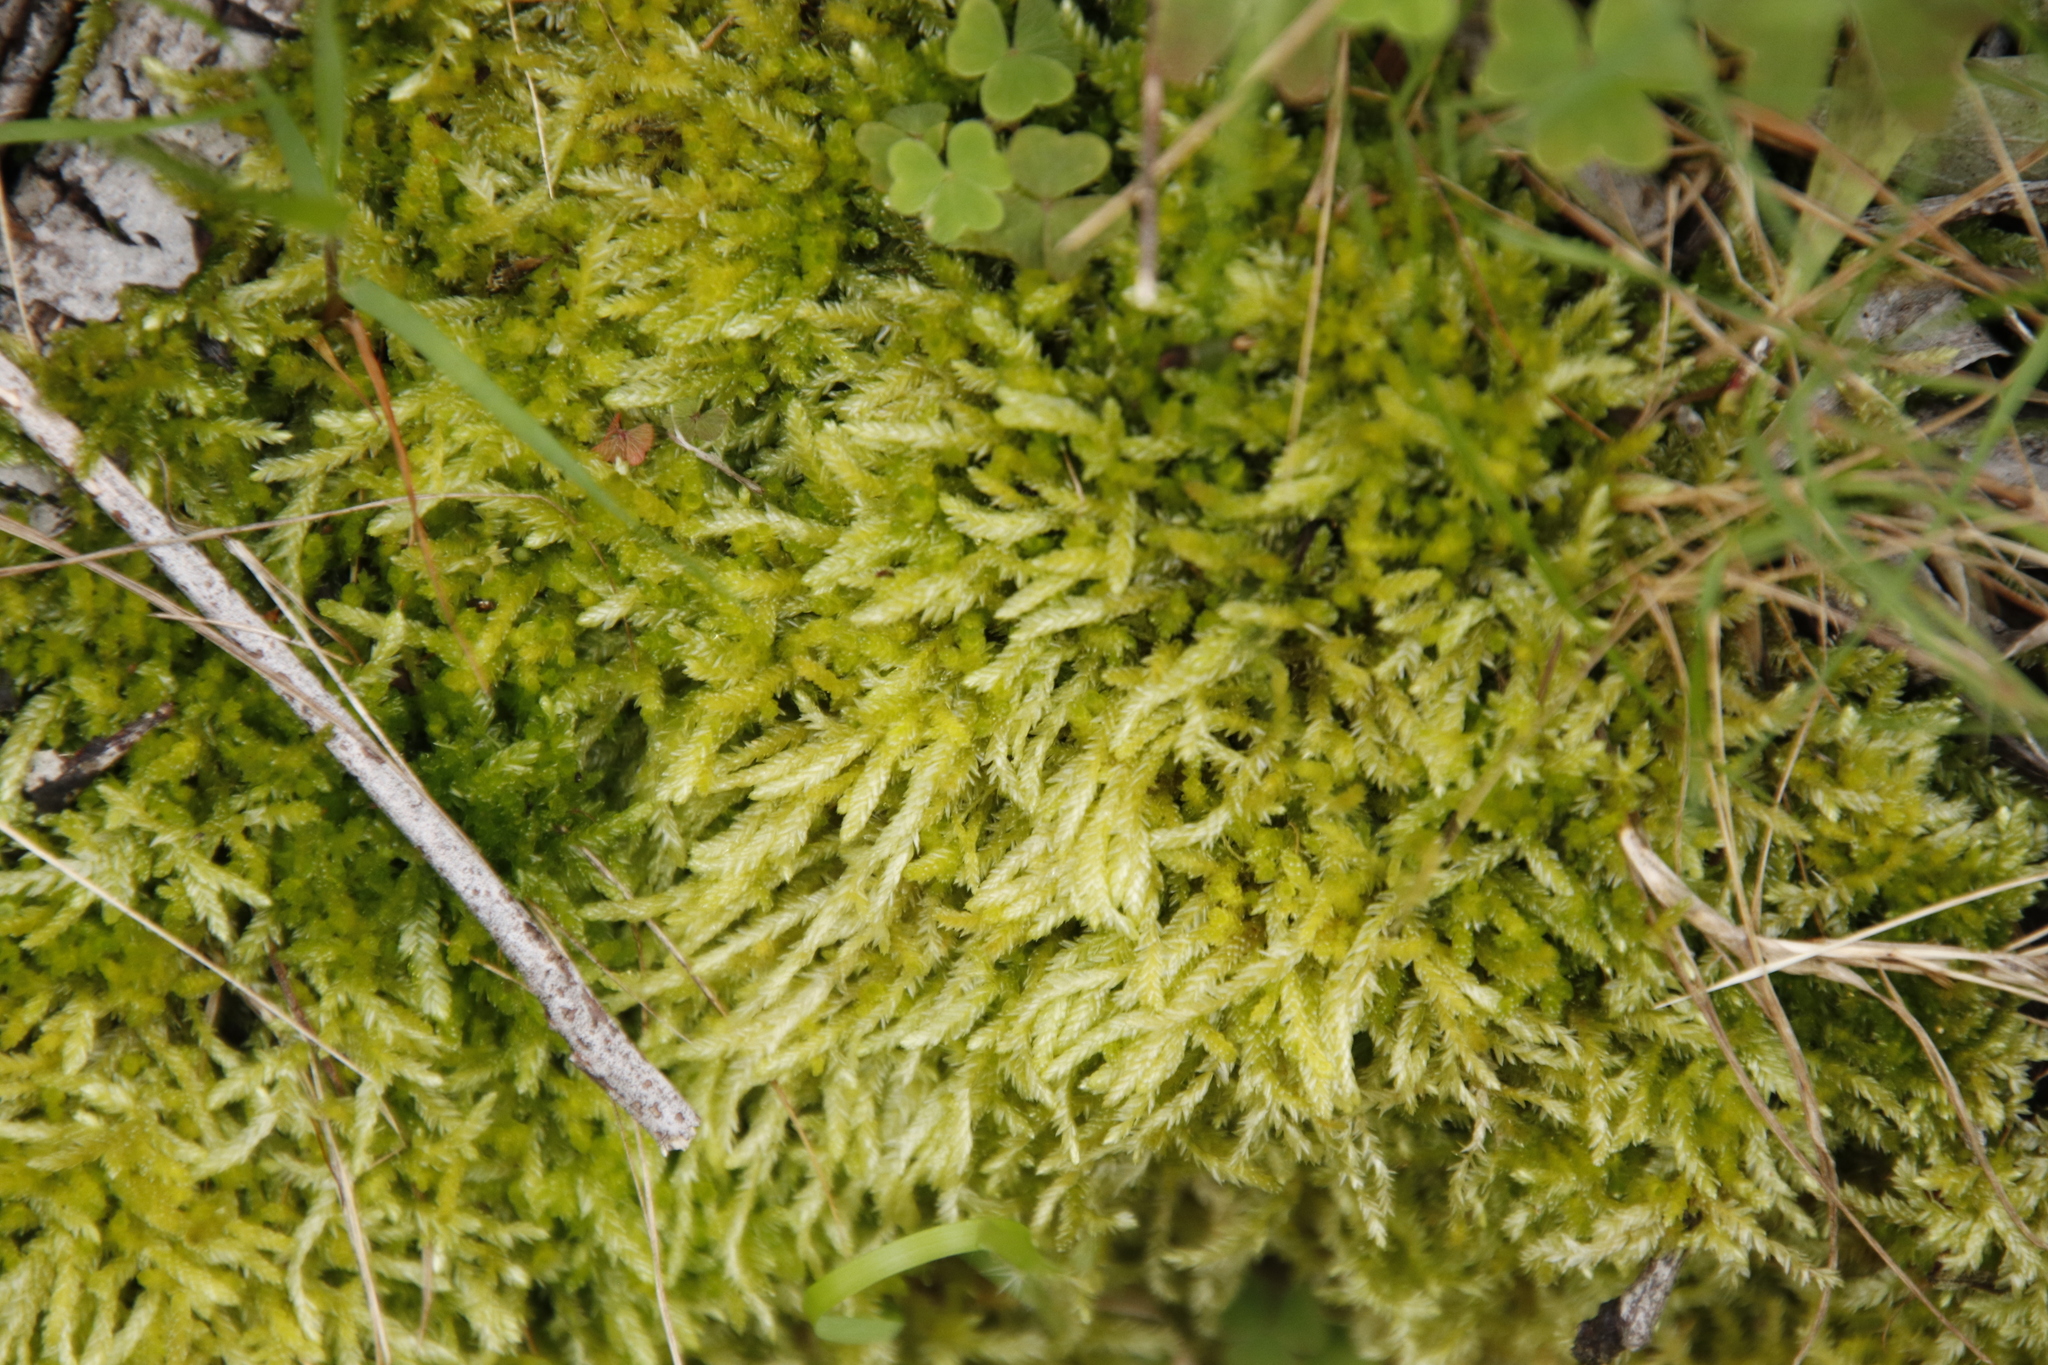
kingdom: Plantae
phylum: Bryophyta
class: Bryopsida
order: Hypnales
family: Fabroniaceae
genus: Ischyrodon
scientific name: Ischyrodon lepturus
